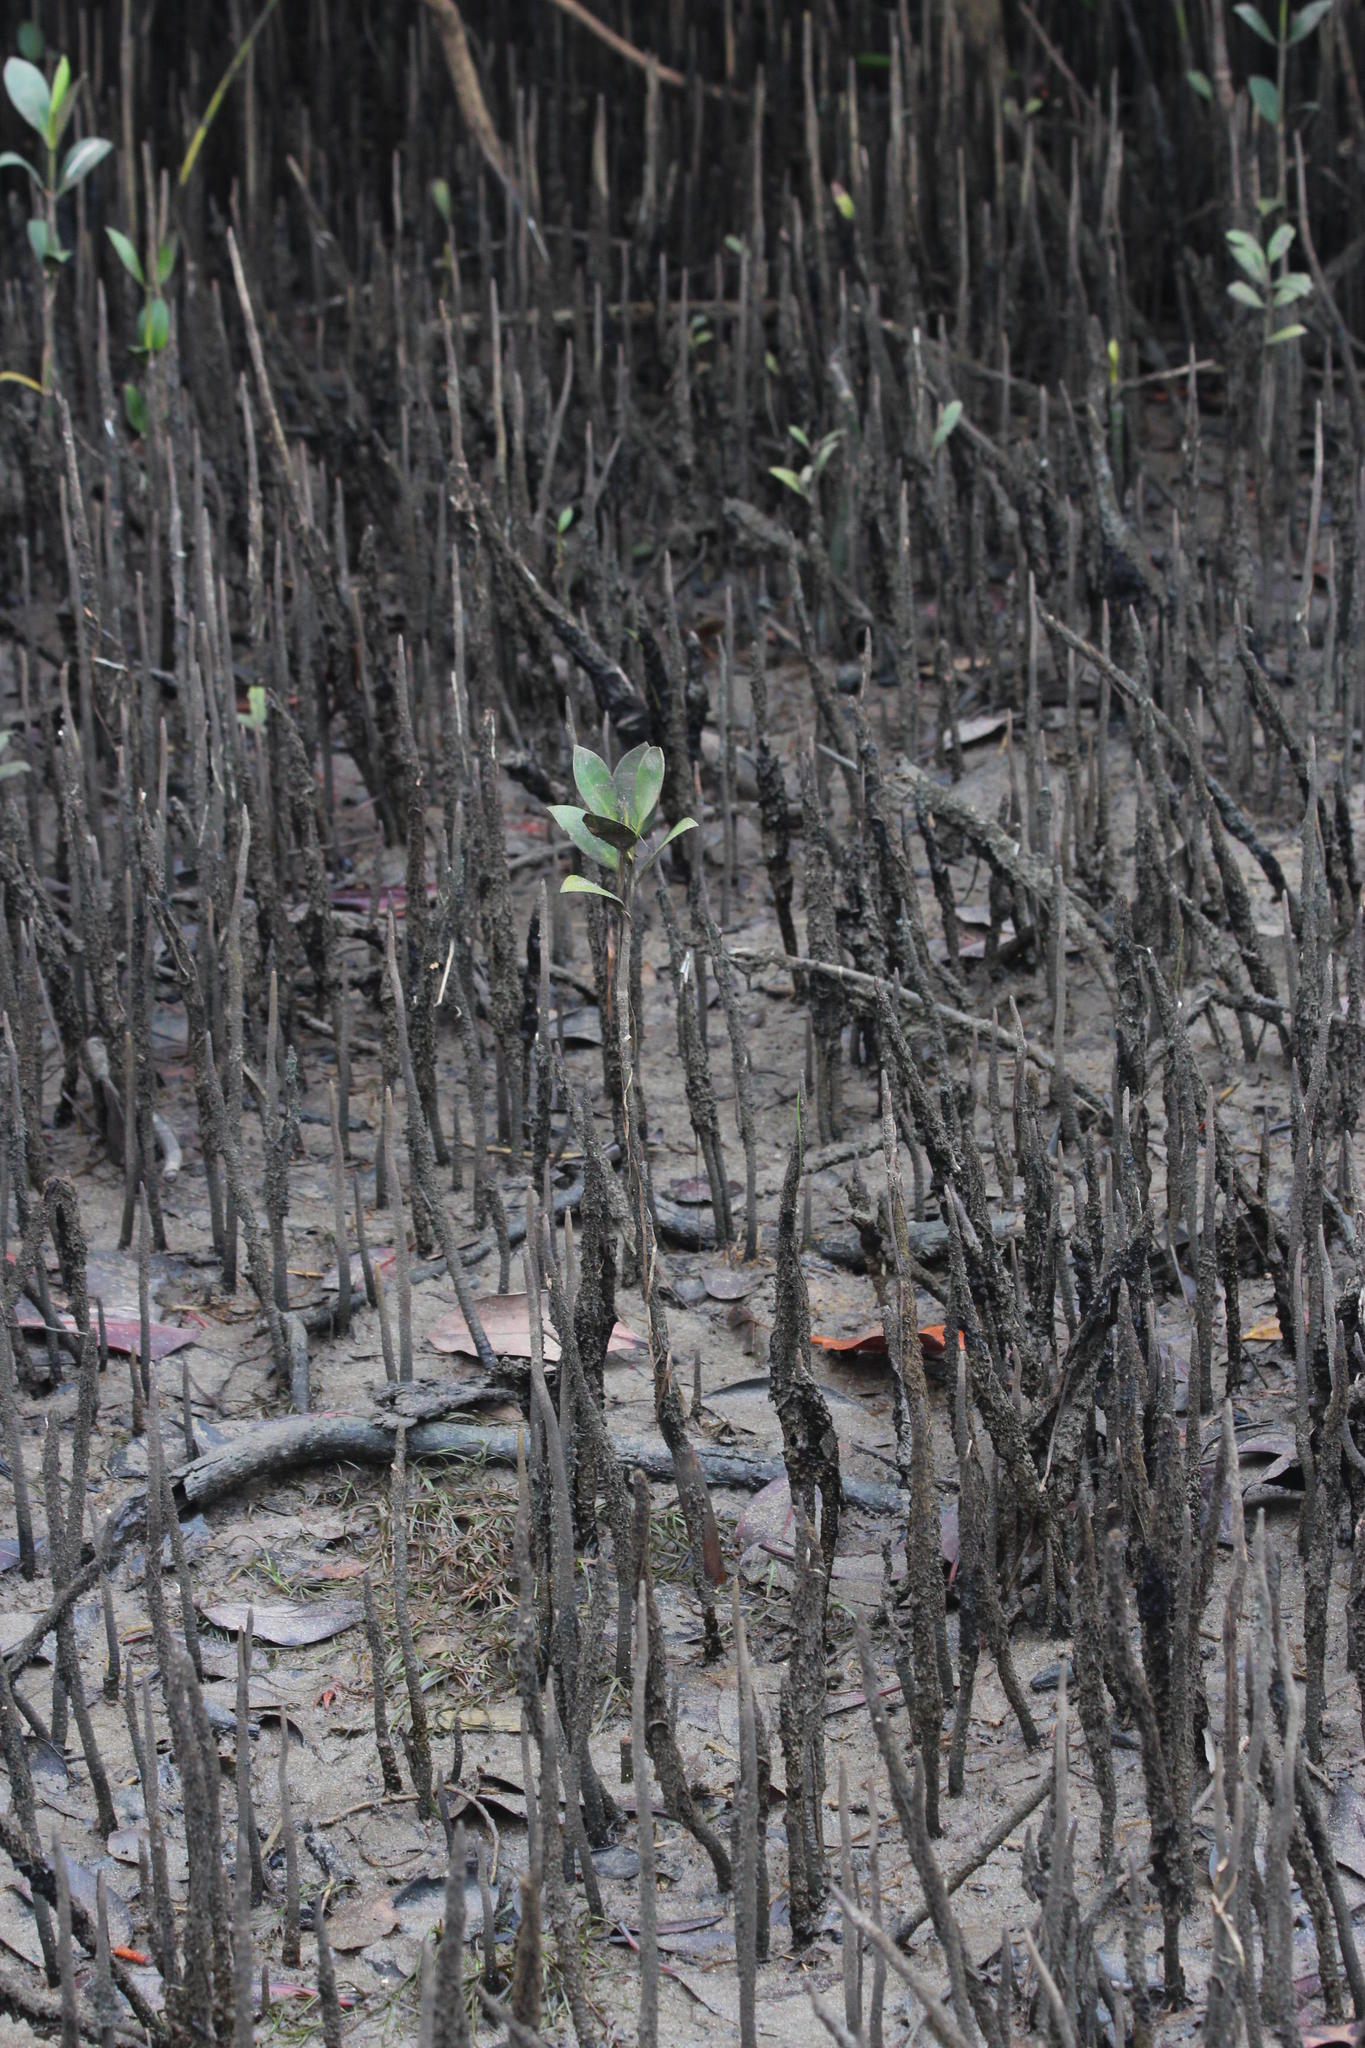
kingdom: Plantae
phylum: Tracheophyta
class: Magnoliopsida
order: Lamiales
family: Acanthaceae
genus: Avicennia
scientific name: Avicennia marina
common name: Gray mangrove
